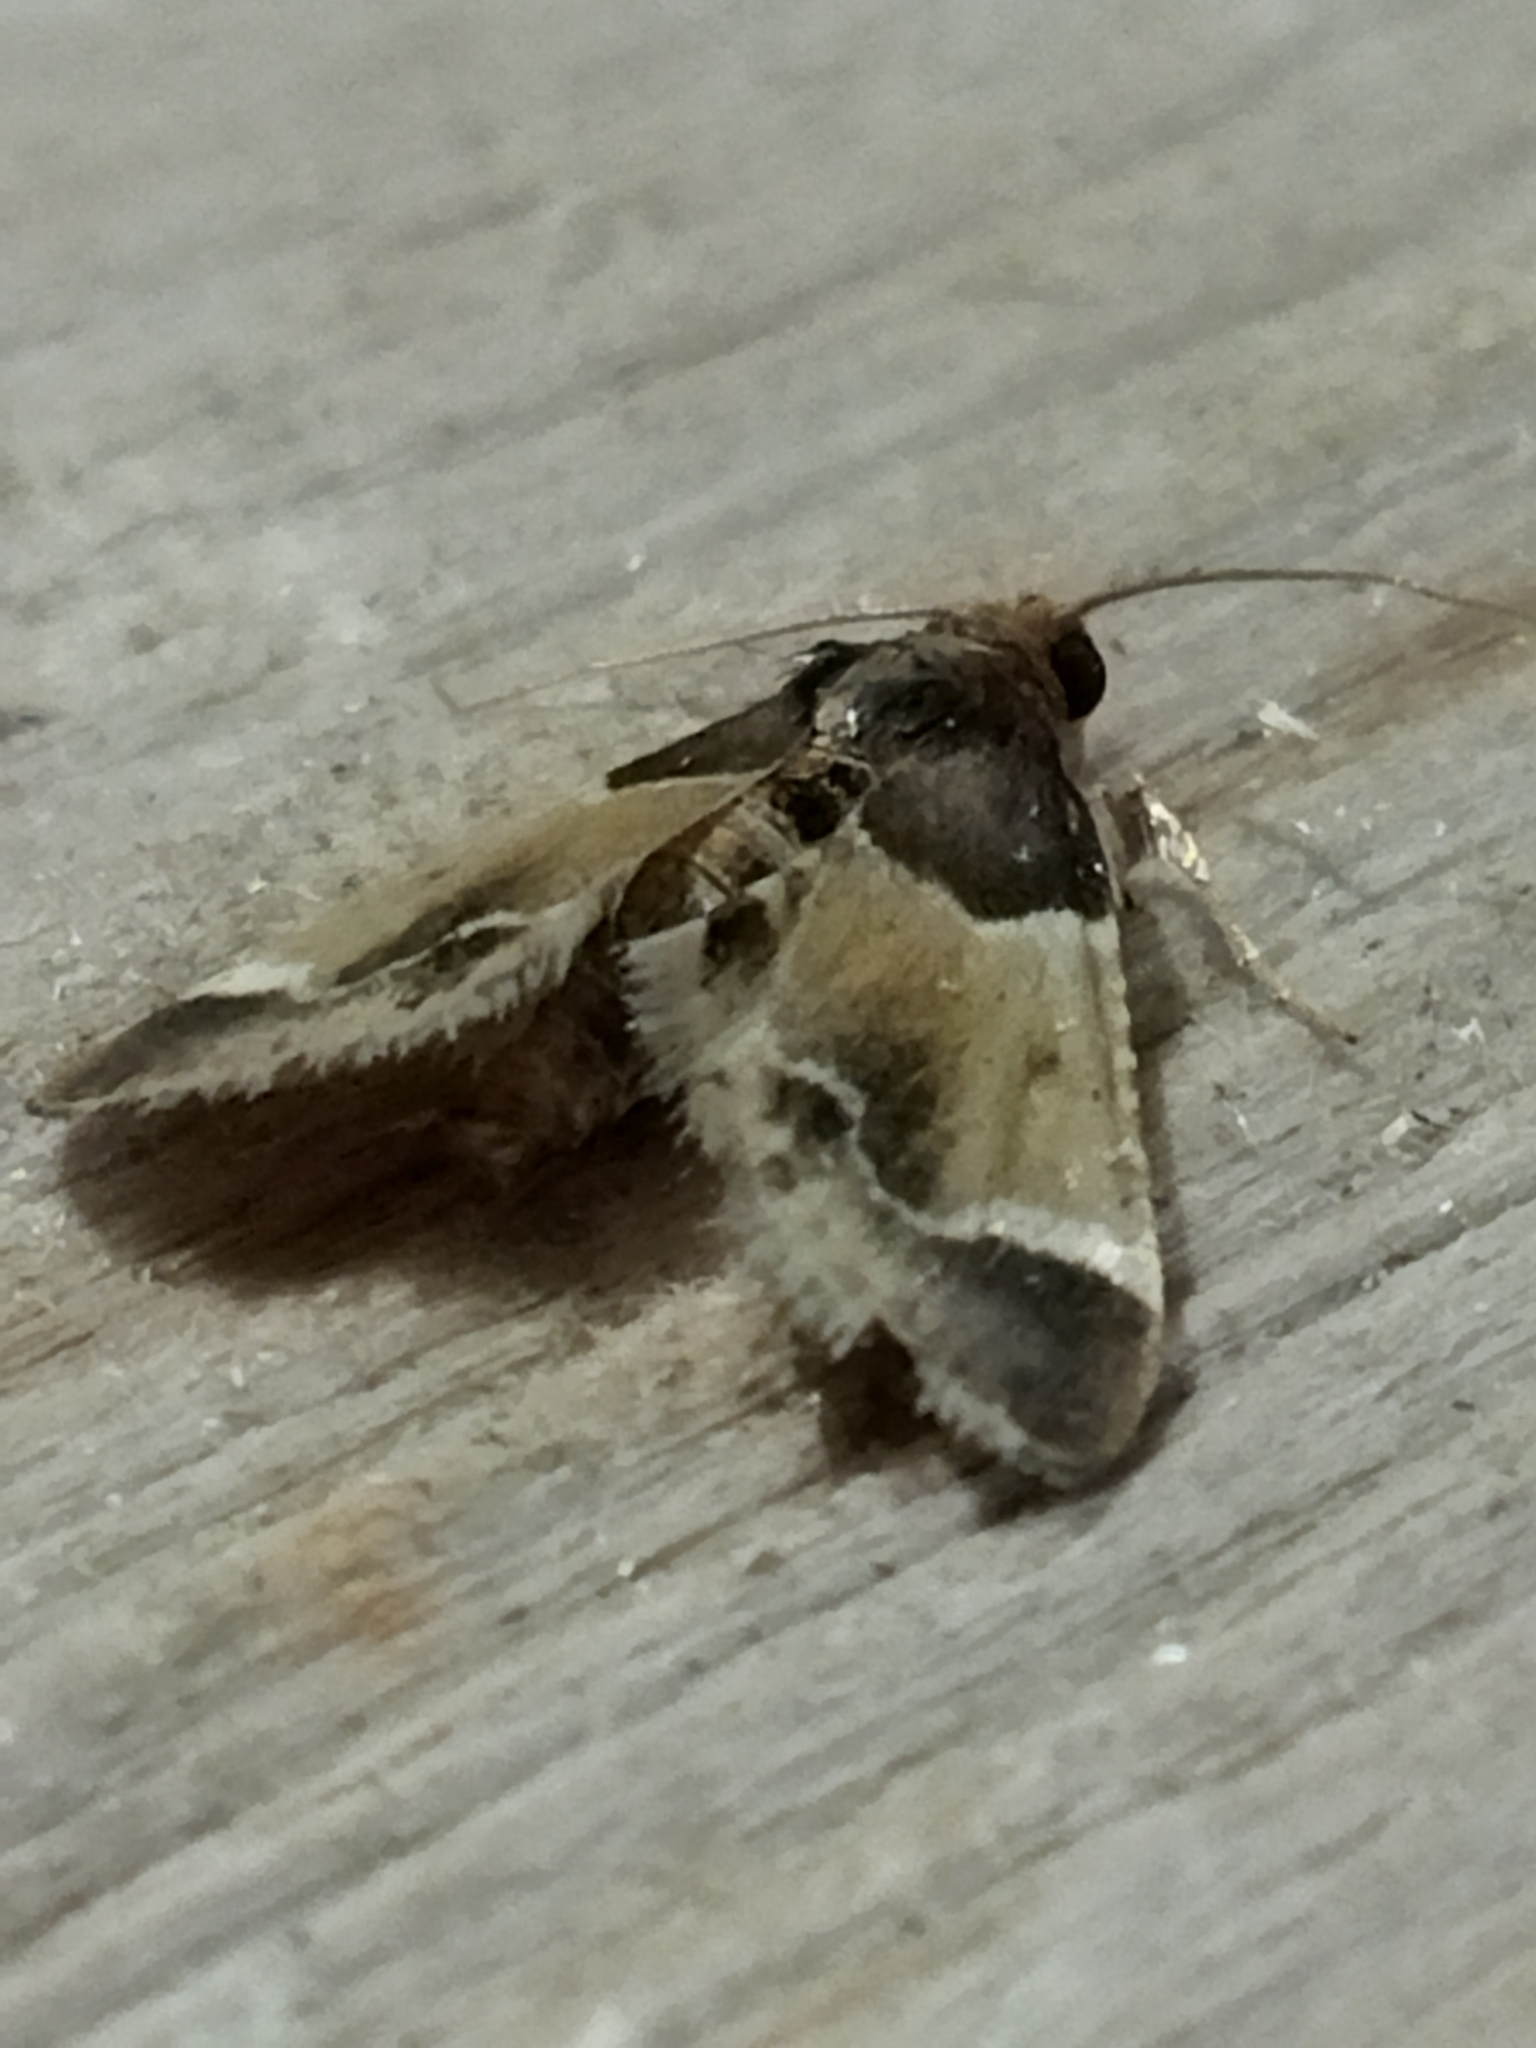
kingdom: Animalia
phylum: Arthropoda
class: Insecta
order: Lepidoptera
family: Pyralidae
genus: Pyralis
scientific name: Pyralis farinalis
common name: Meal moth
